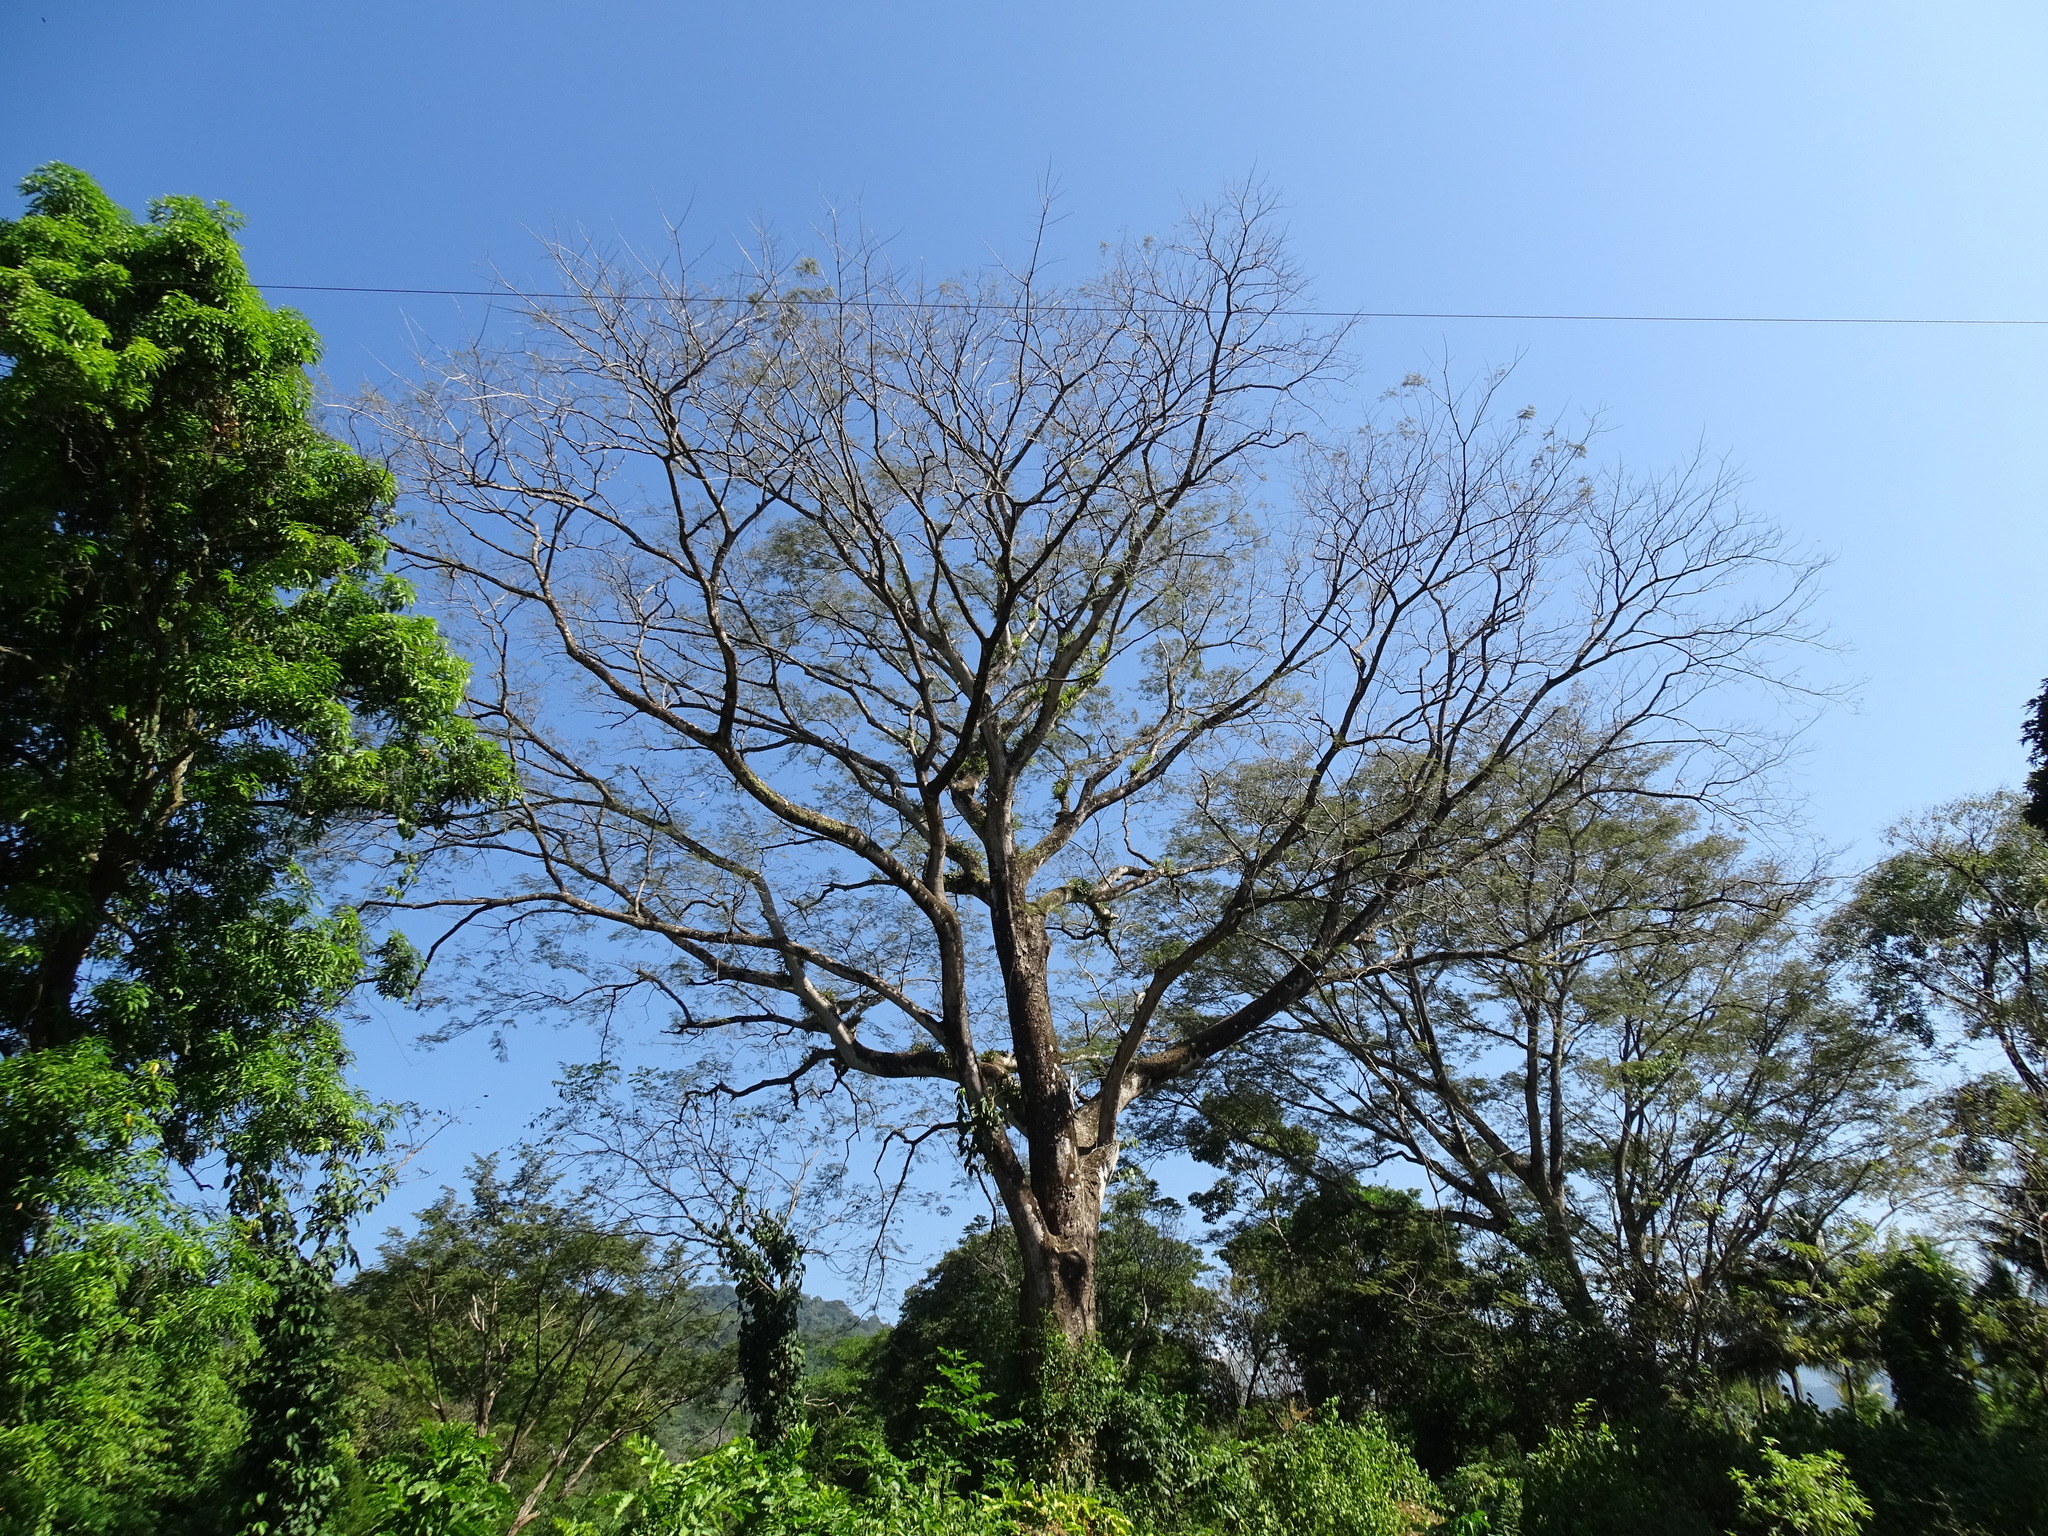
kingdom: Plantae
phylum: Tracheophyta
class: Magnoliopsida
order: Fabales
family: Fabaceae
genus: Enterolobium
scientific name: Enterolobium cyclocarpum
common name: Ear tree
